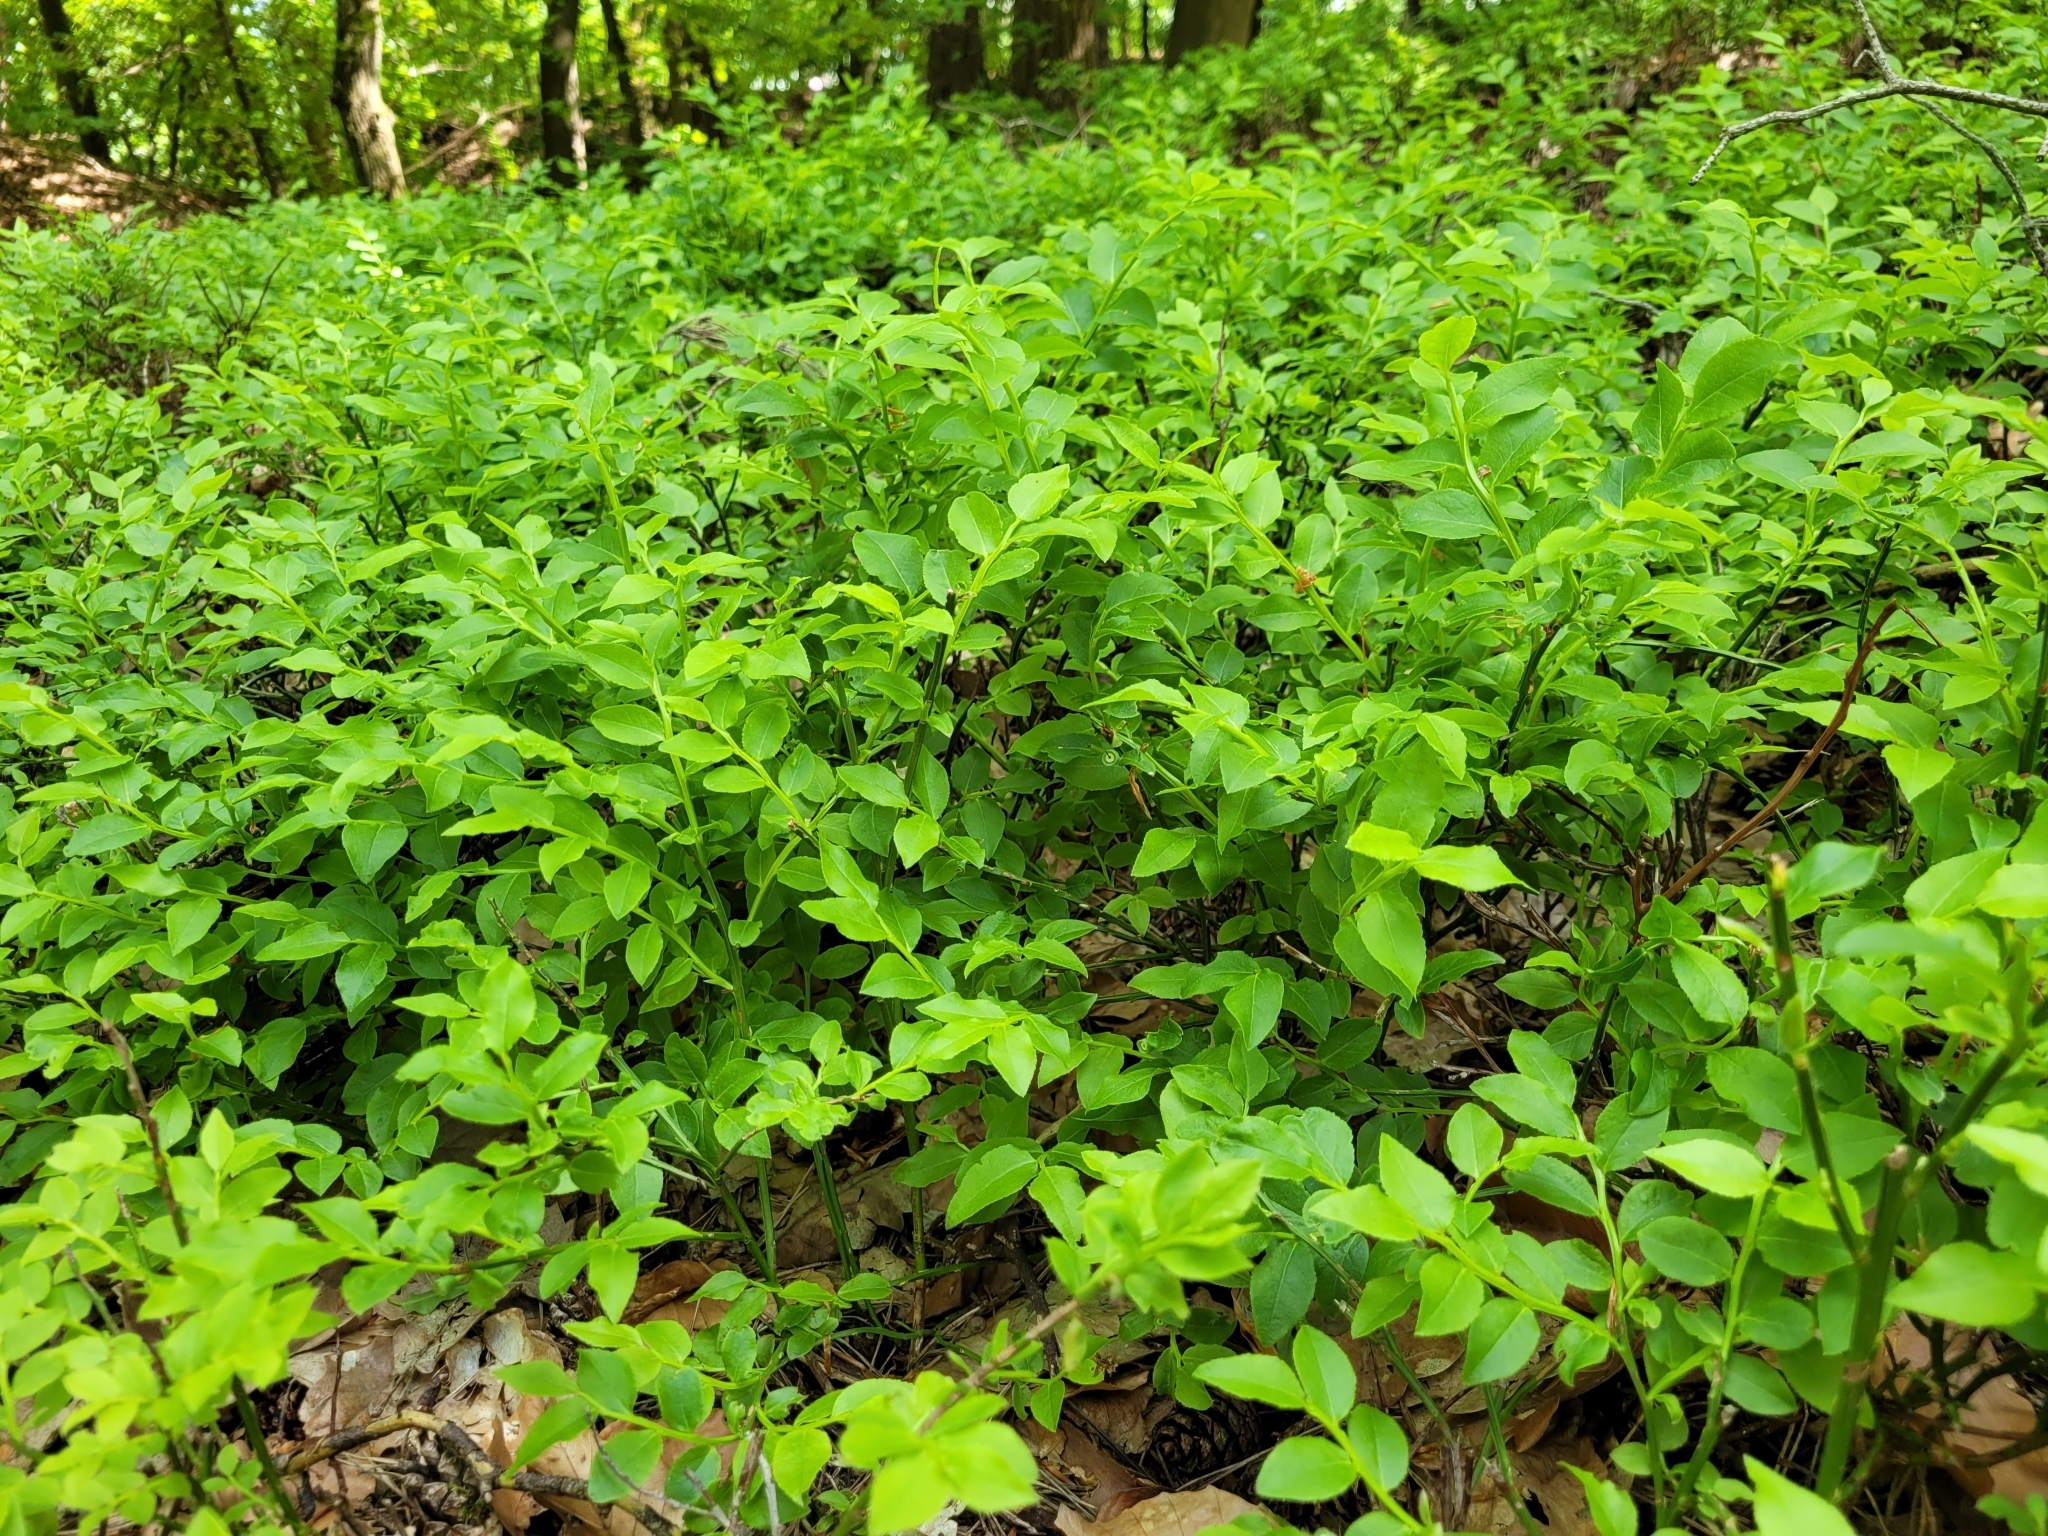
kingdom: Plantae
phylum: Tracheophyta
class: Magnoliopsida
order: Ericales
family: Ericaceae
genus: Vaccinium
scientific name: Vaccinium myrtillus
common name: Bilberry
